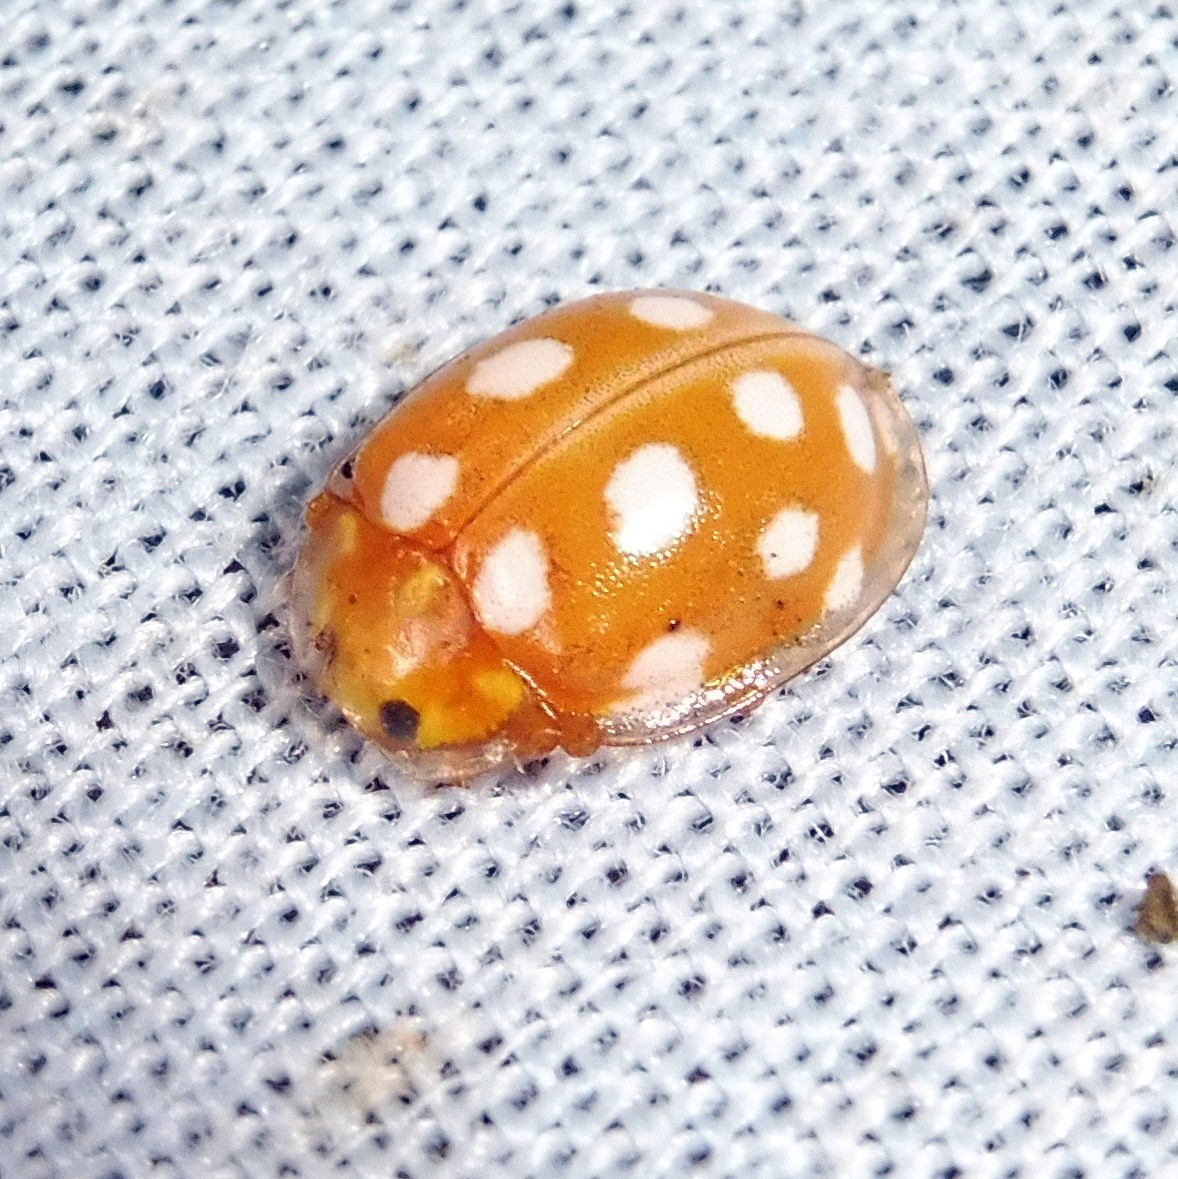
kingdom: Animalia
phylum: Arthropoda
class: Insecta
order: Coleoptera
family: Coccinellidae
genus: Halyzia
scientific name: Halyzia sedecimguttata
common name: Orange ladybird
